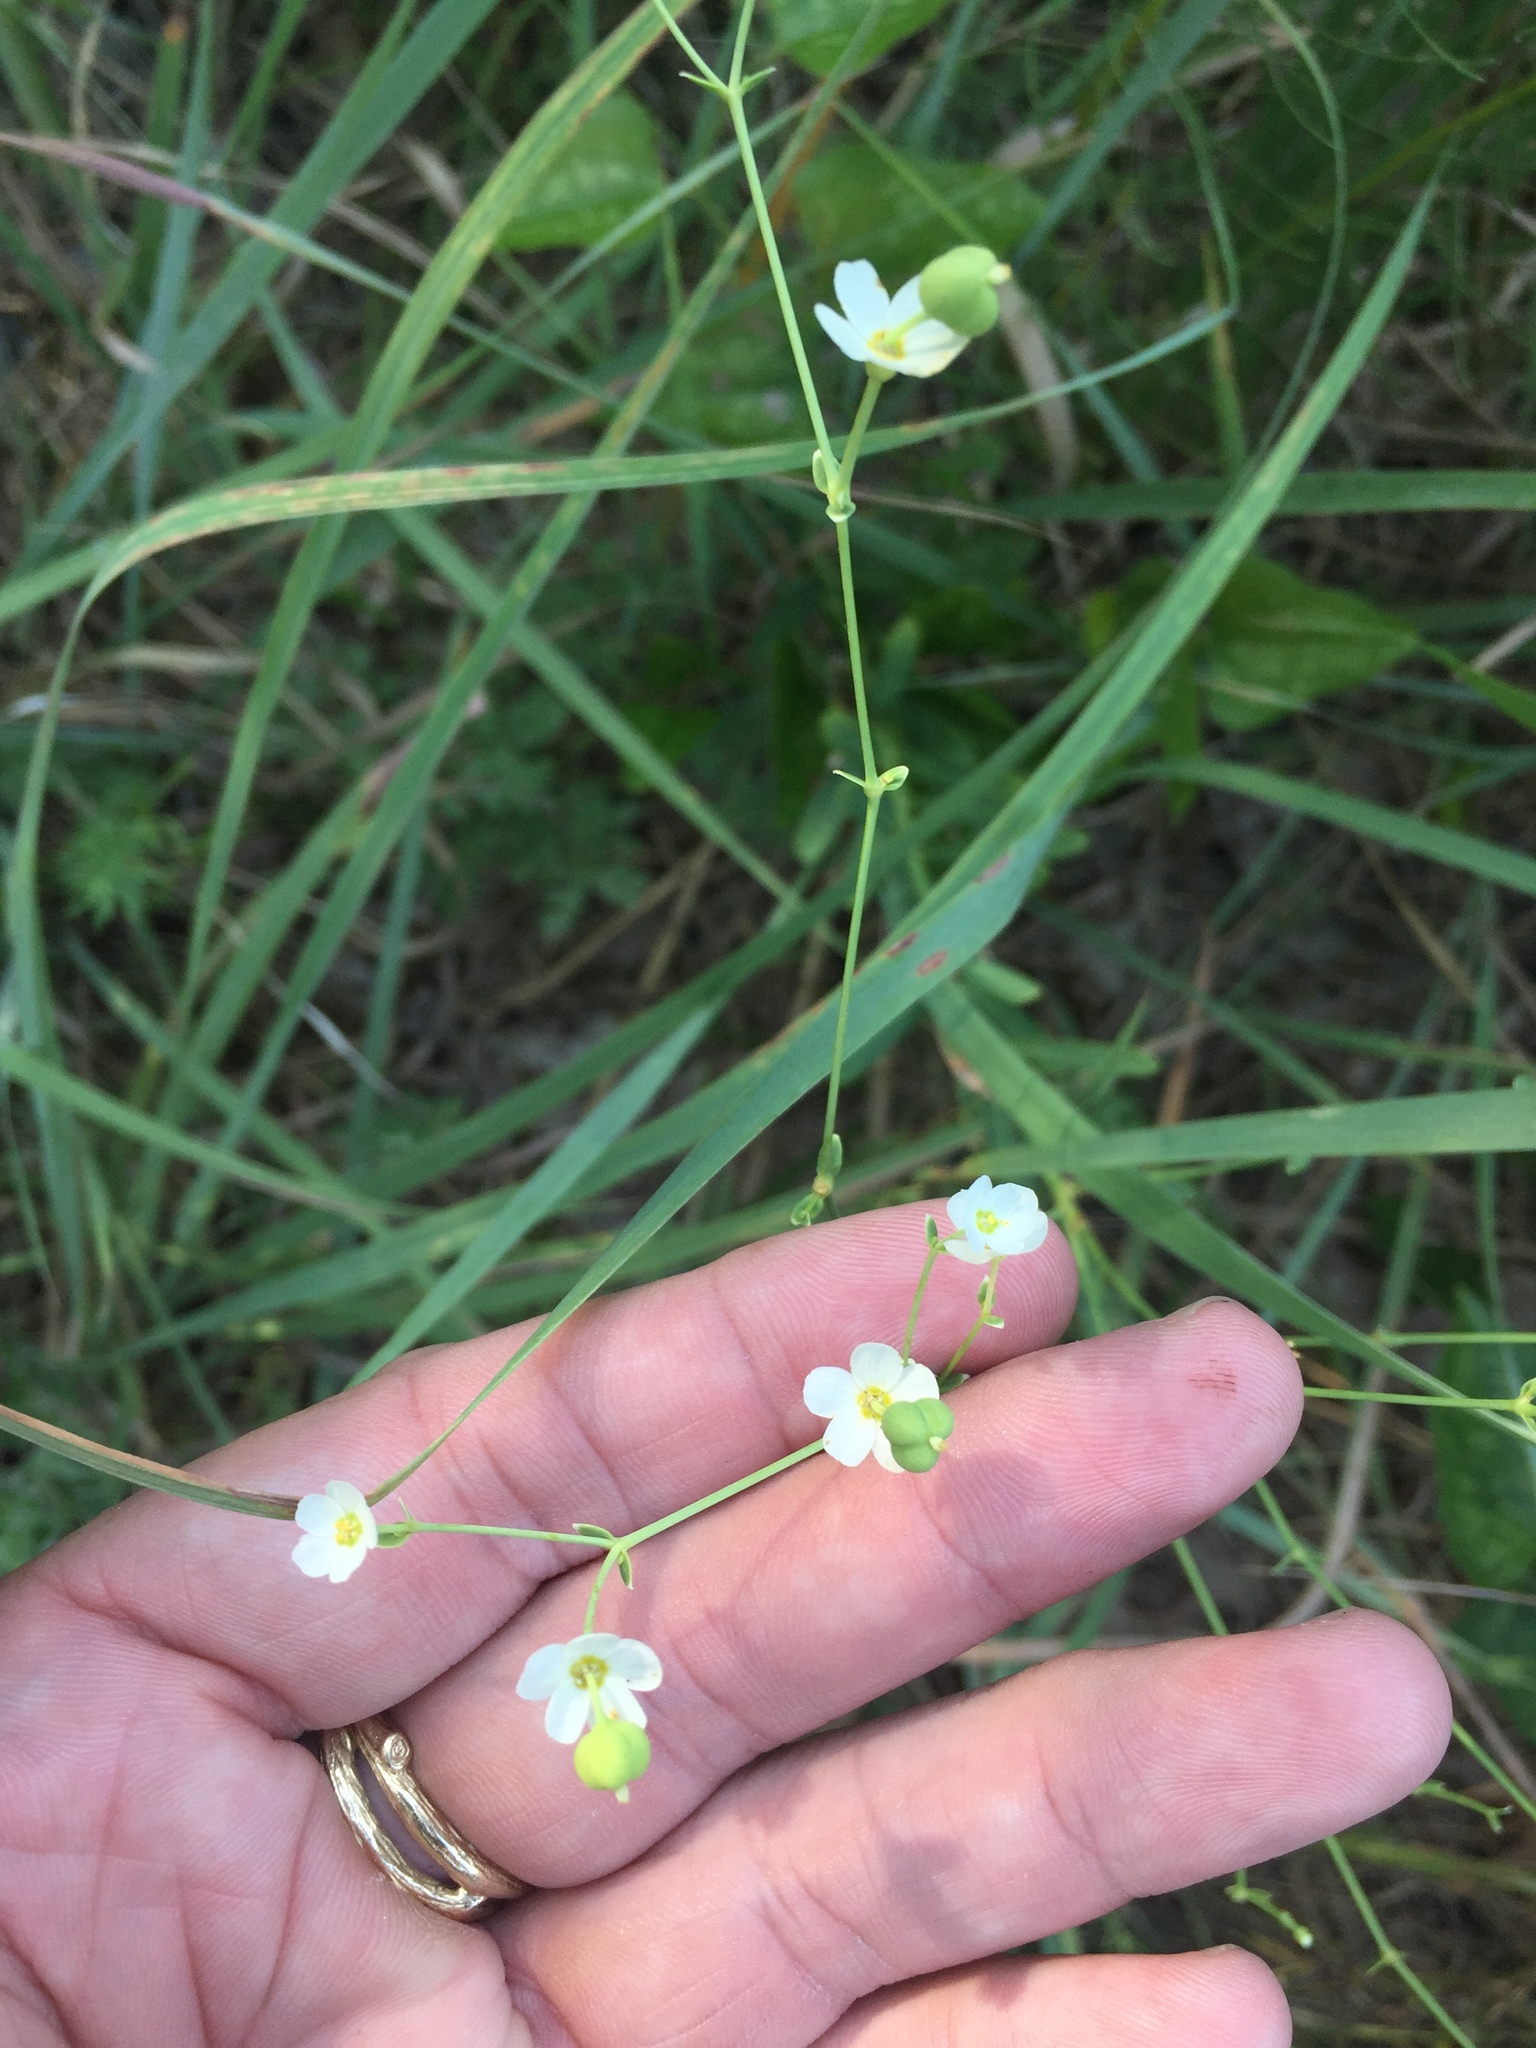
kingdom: Plantae
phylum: Tracheophyta
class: Magnoliopsida
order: Malpighiales
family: Euphorbiaceae
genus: Euphorbia
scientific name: Euphorbia corollata
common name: Flowering spurge
